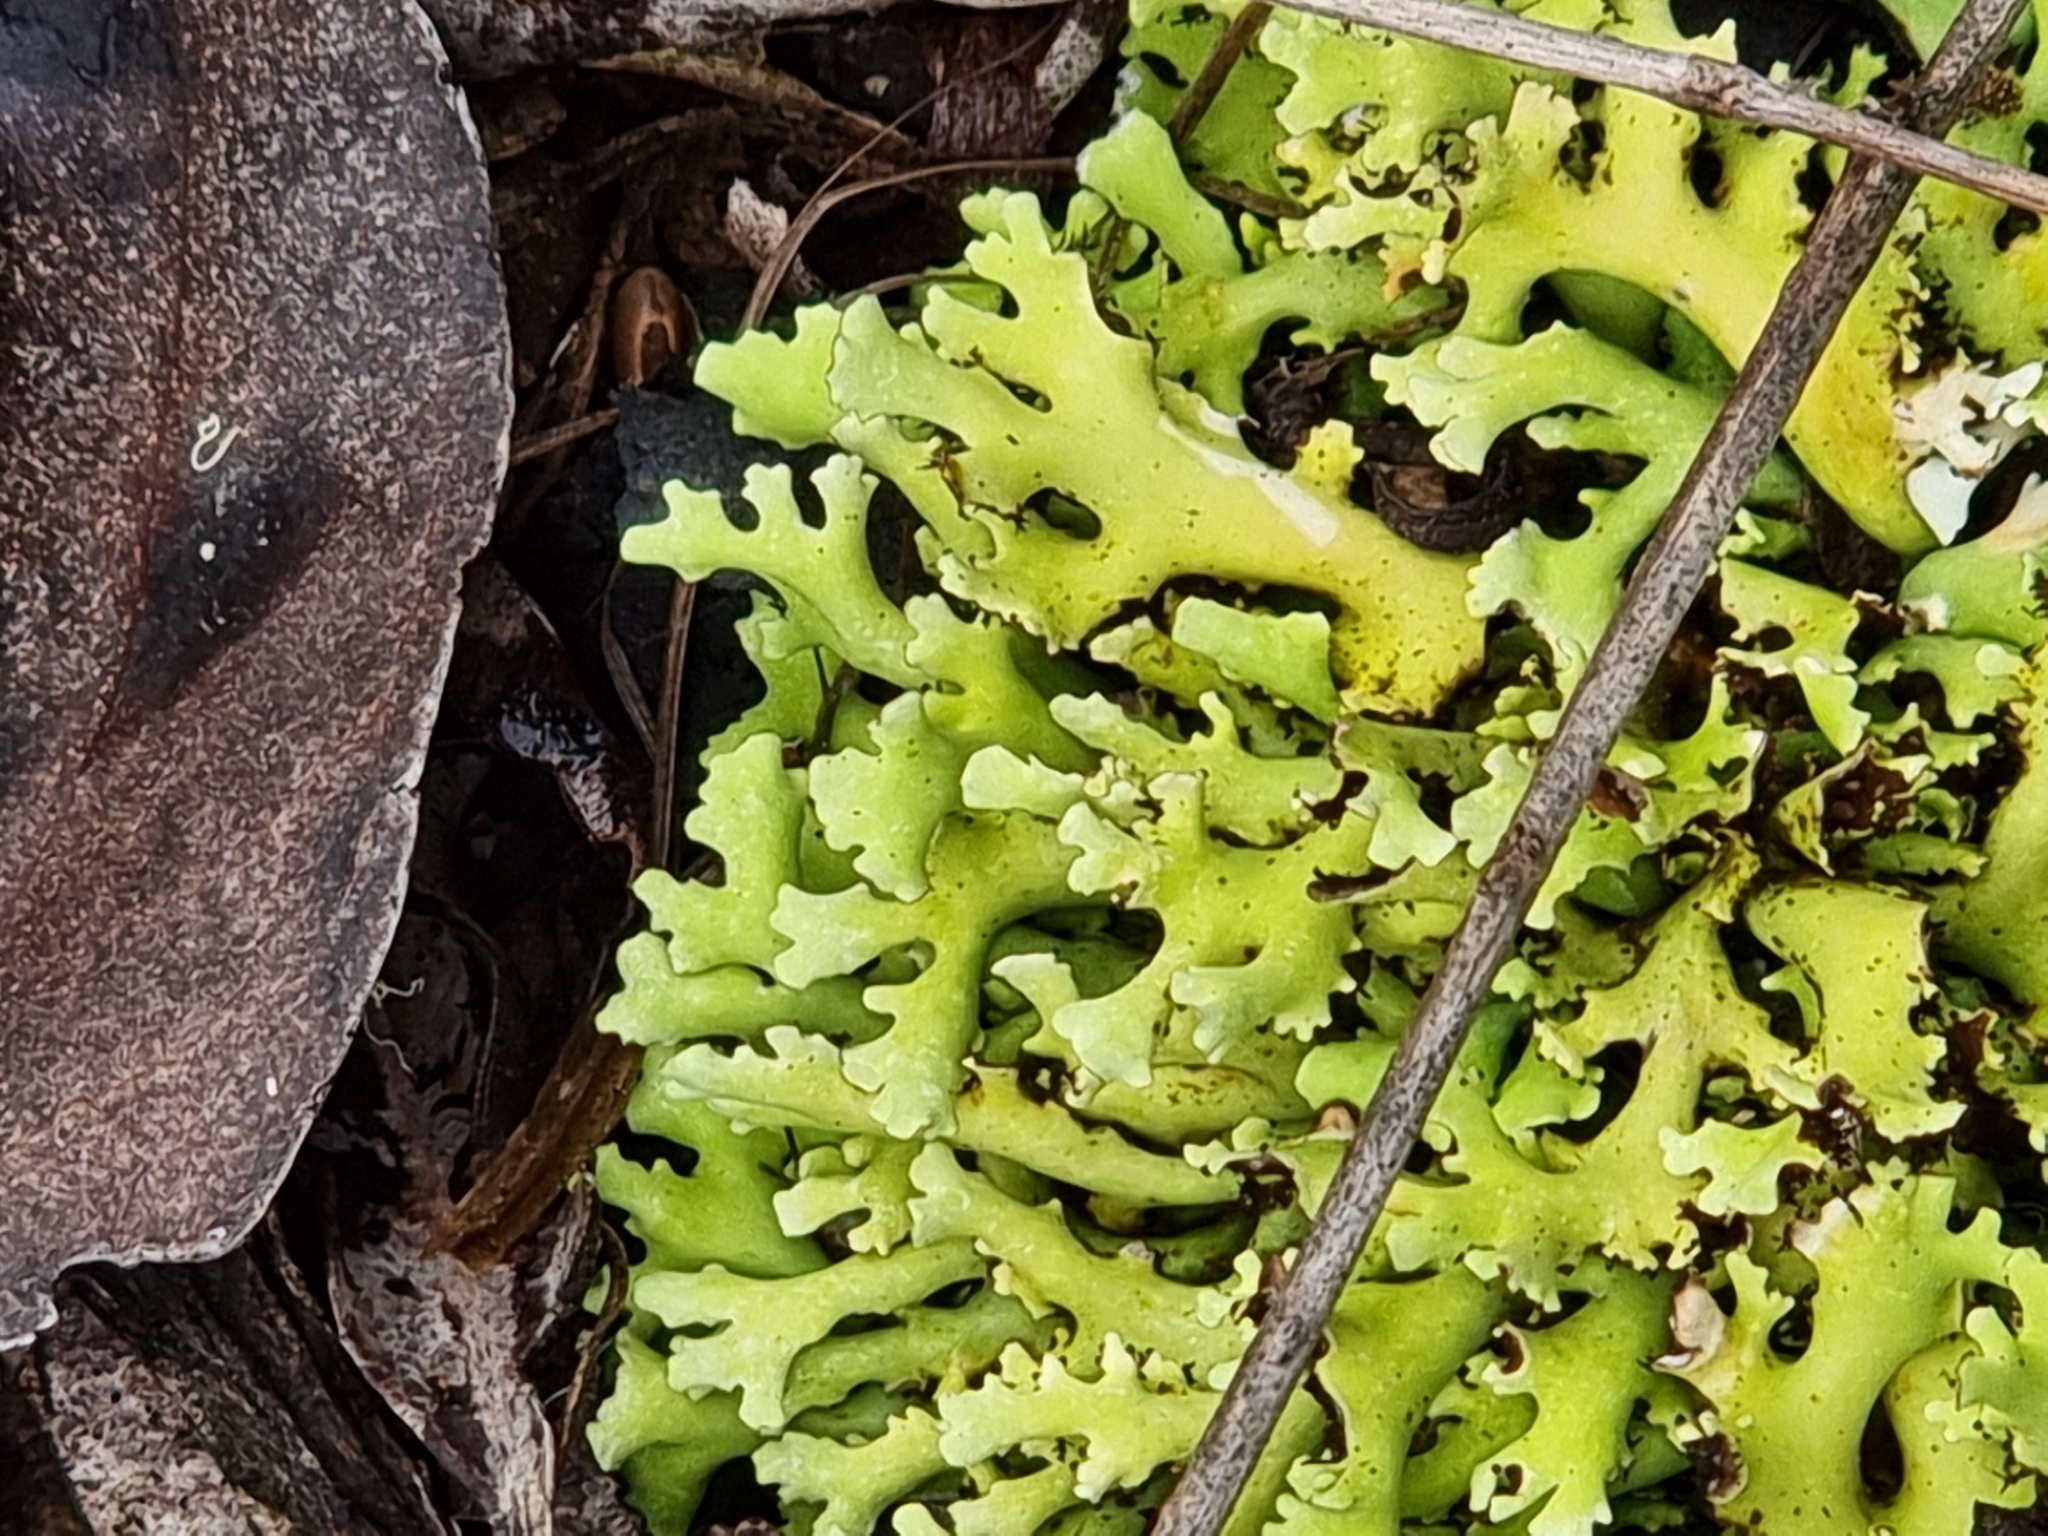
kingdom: Fungi
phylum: Ascomycota
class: Lecanoromycetes
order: Lecanorales
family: Cladoniaceae
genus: Cladia
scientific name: Cladia muelleri
